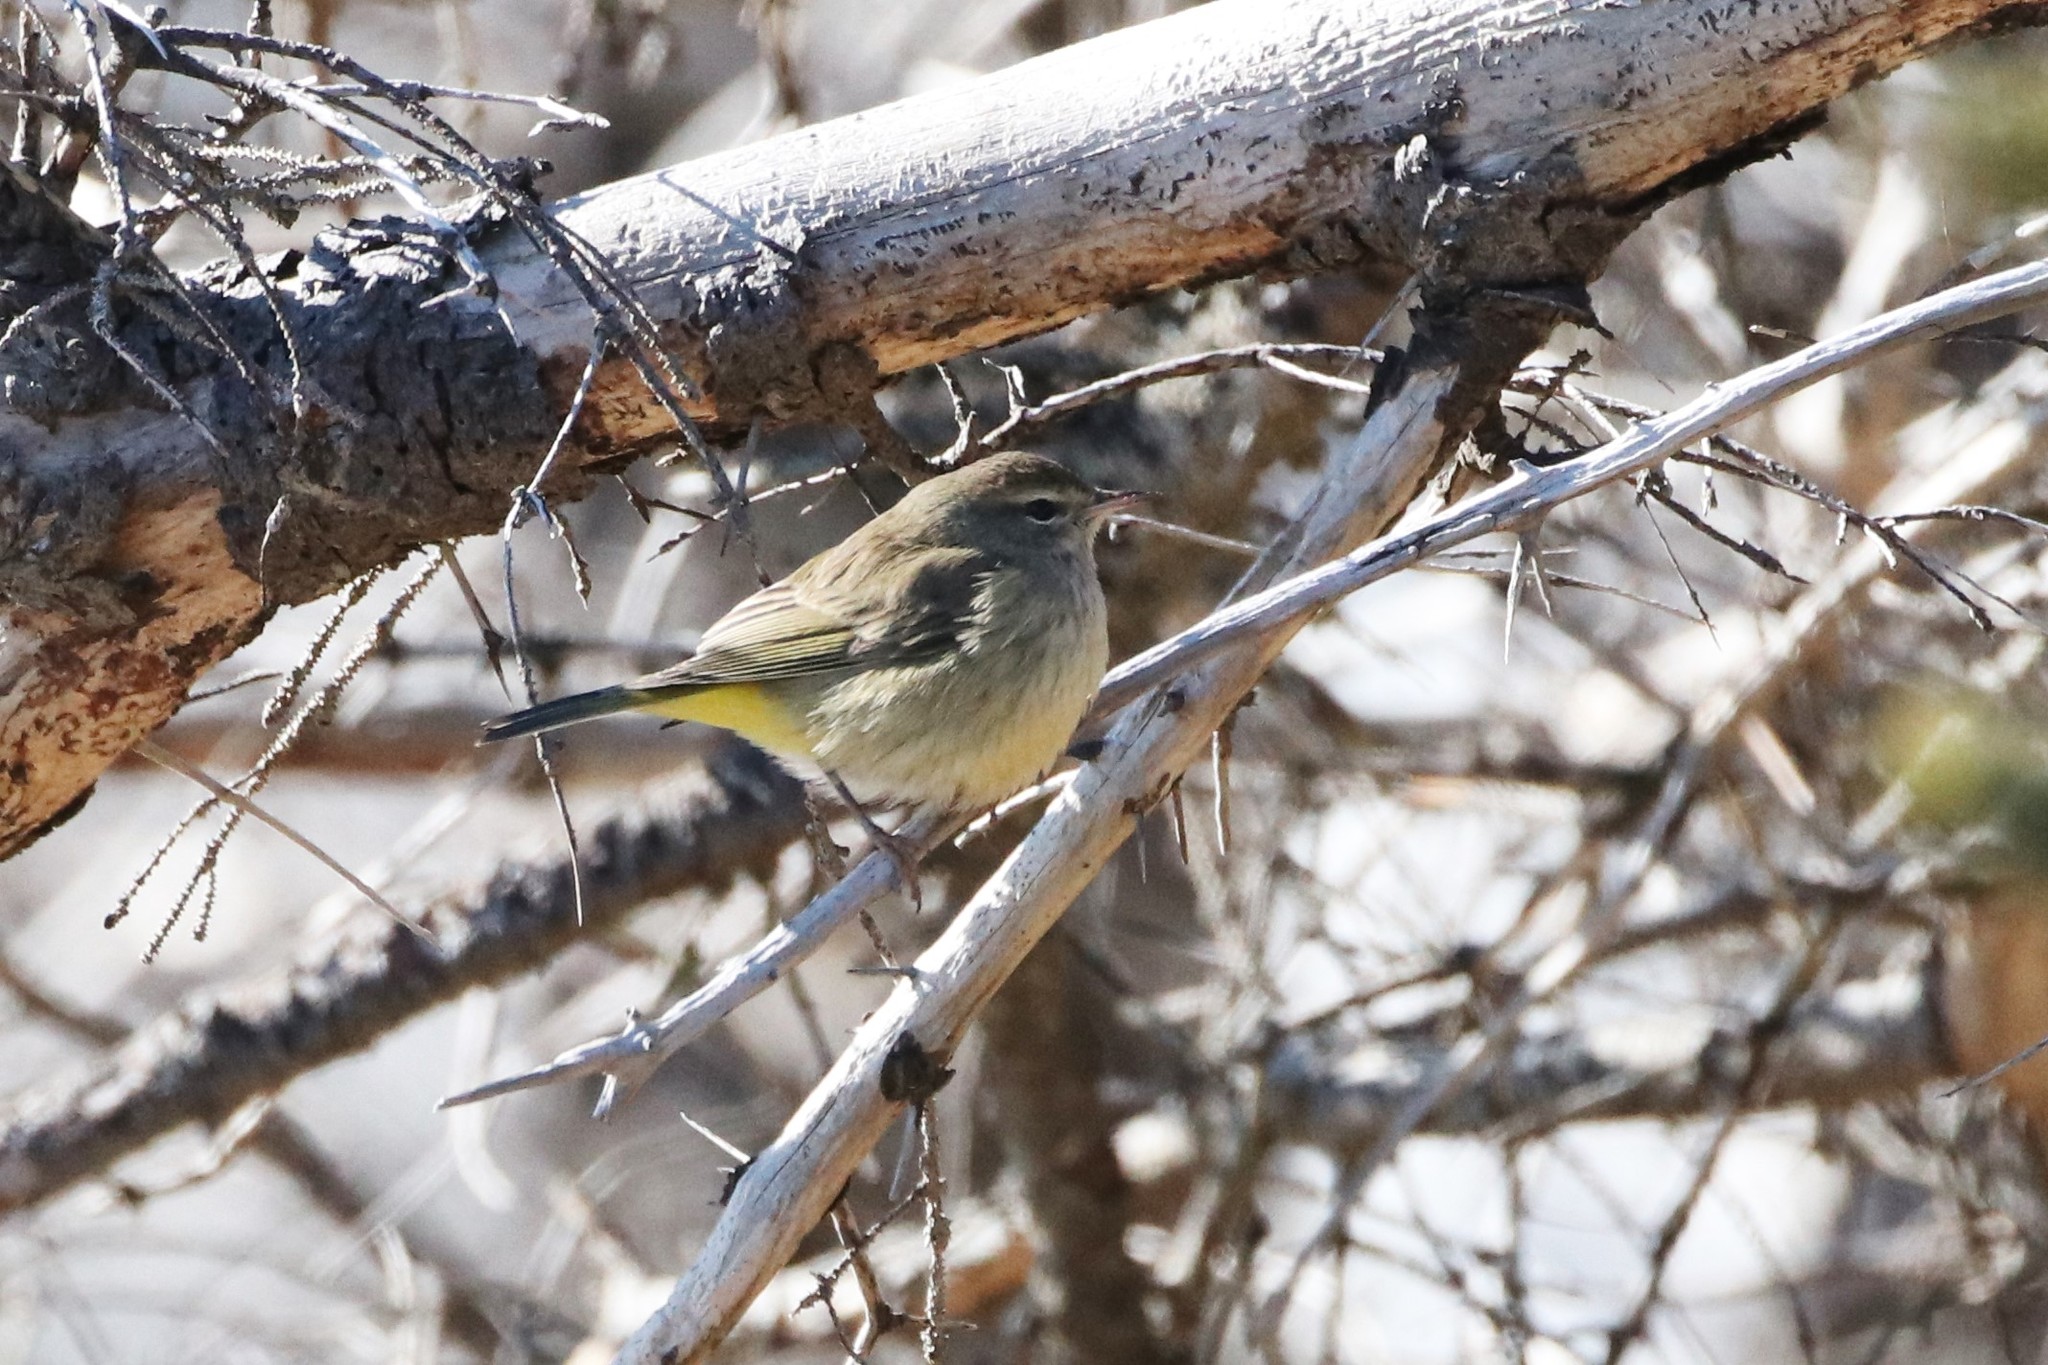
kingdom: Animalia
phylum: Chordata
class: Aves
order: Passeriformes
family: Parulidae
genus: Setophaga
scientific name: Setophaga palmarum
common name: Palm warbler
